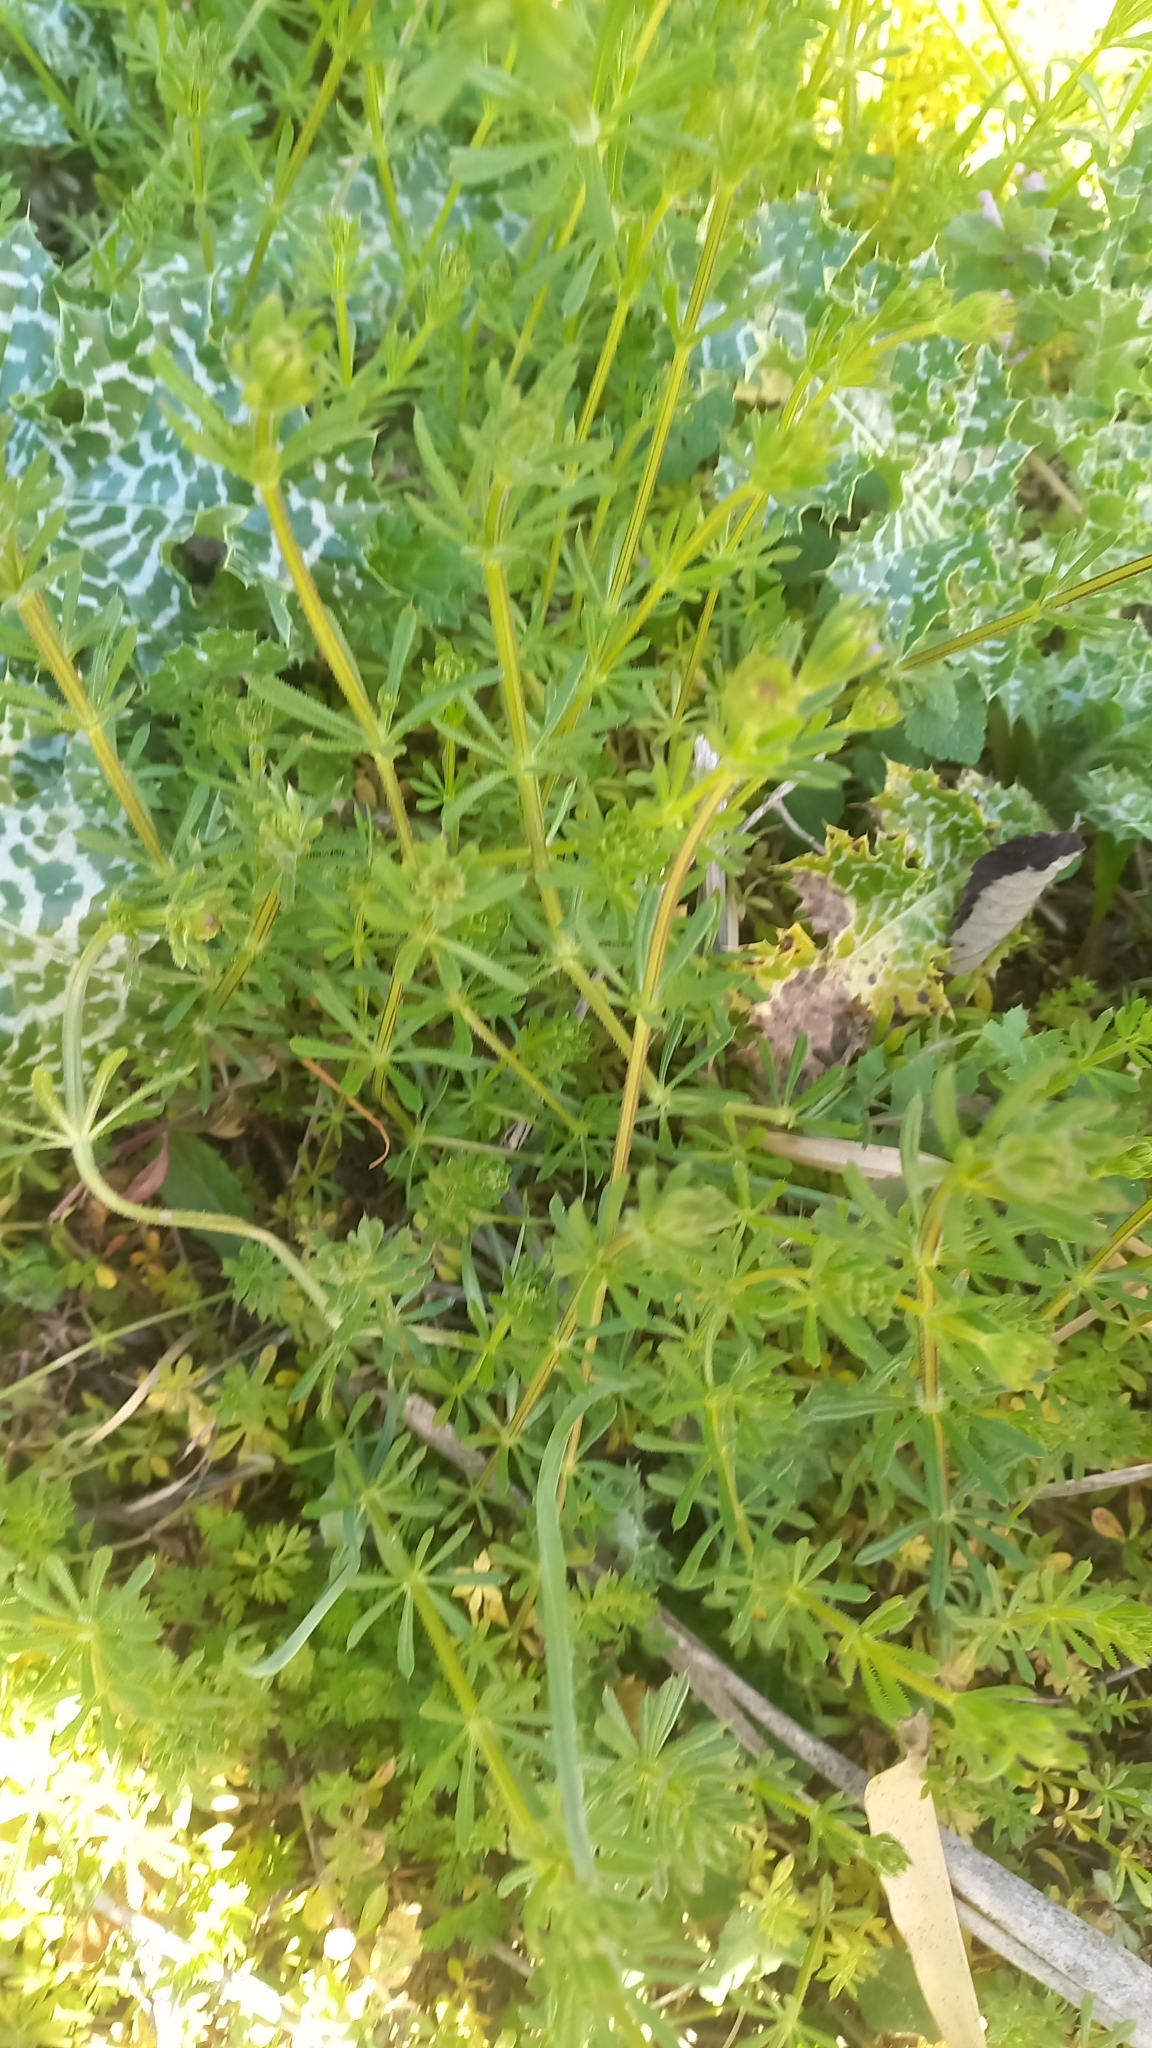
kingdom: Plantae
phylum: Tracheophyta
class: Magnoliopsida
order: Gentianales
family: Rubiaceae
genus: Galium
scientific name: Galium aparine
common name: Cleavers
